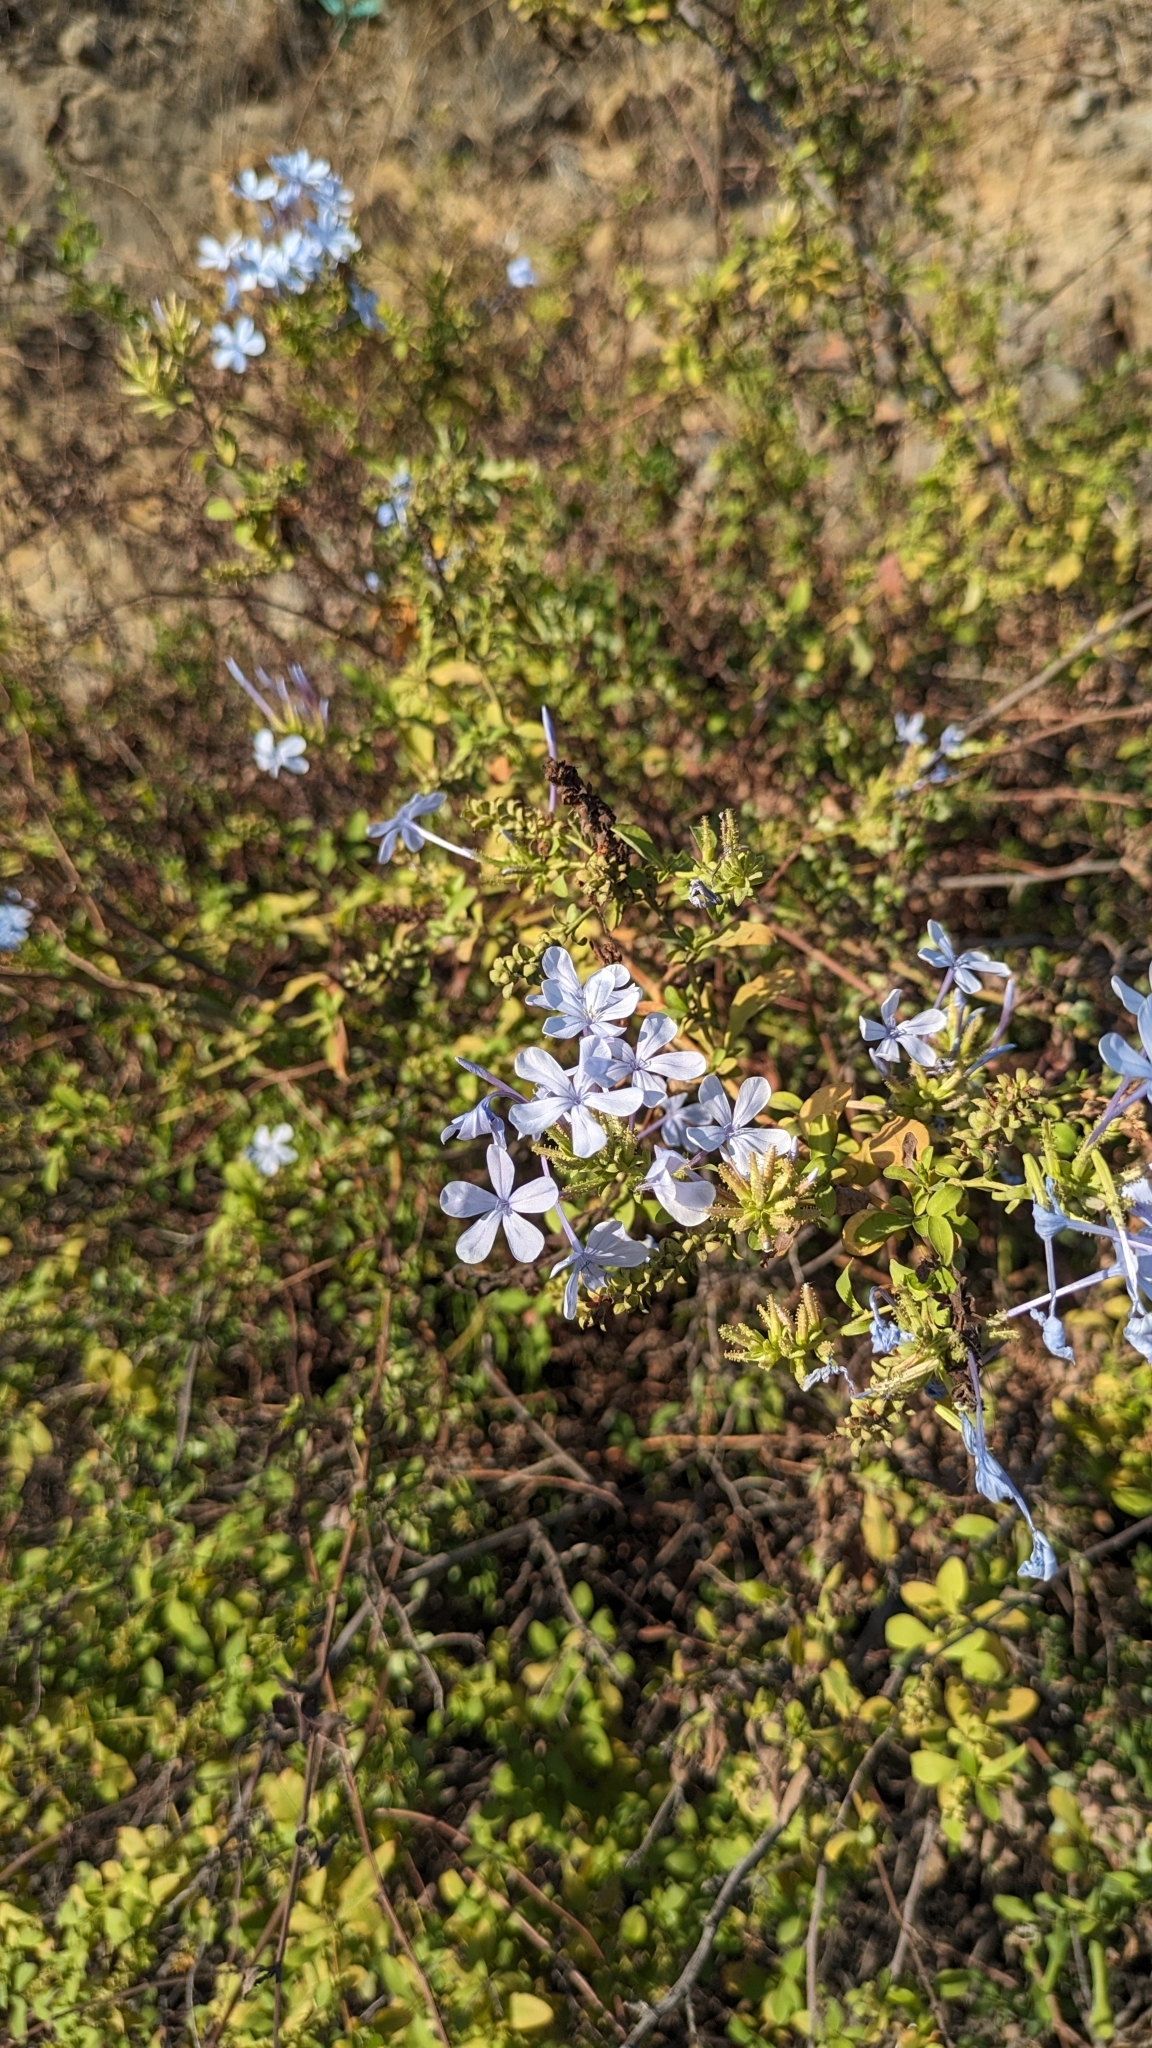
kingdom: Plantae
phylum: Tracheophyta
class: Magnoliopsida
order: Caryophyllales
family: Plumbaginaceae
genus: Plumbago
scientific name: Plumbago auriculata
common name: Cape leadwort
